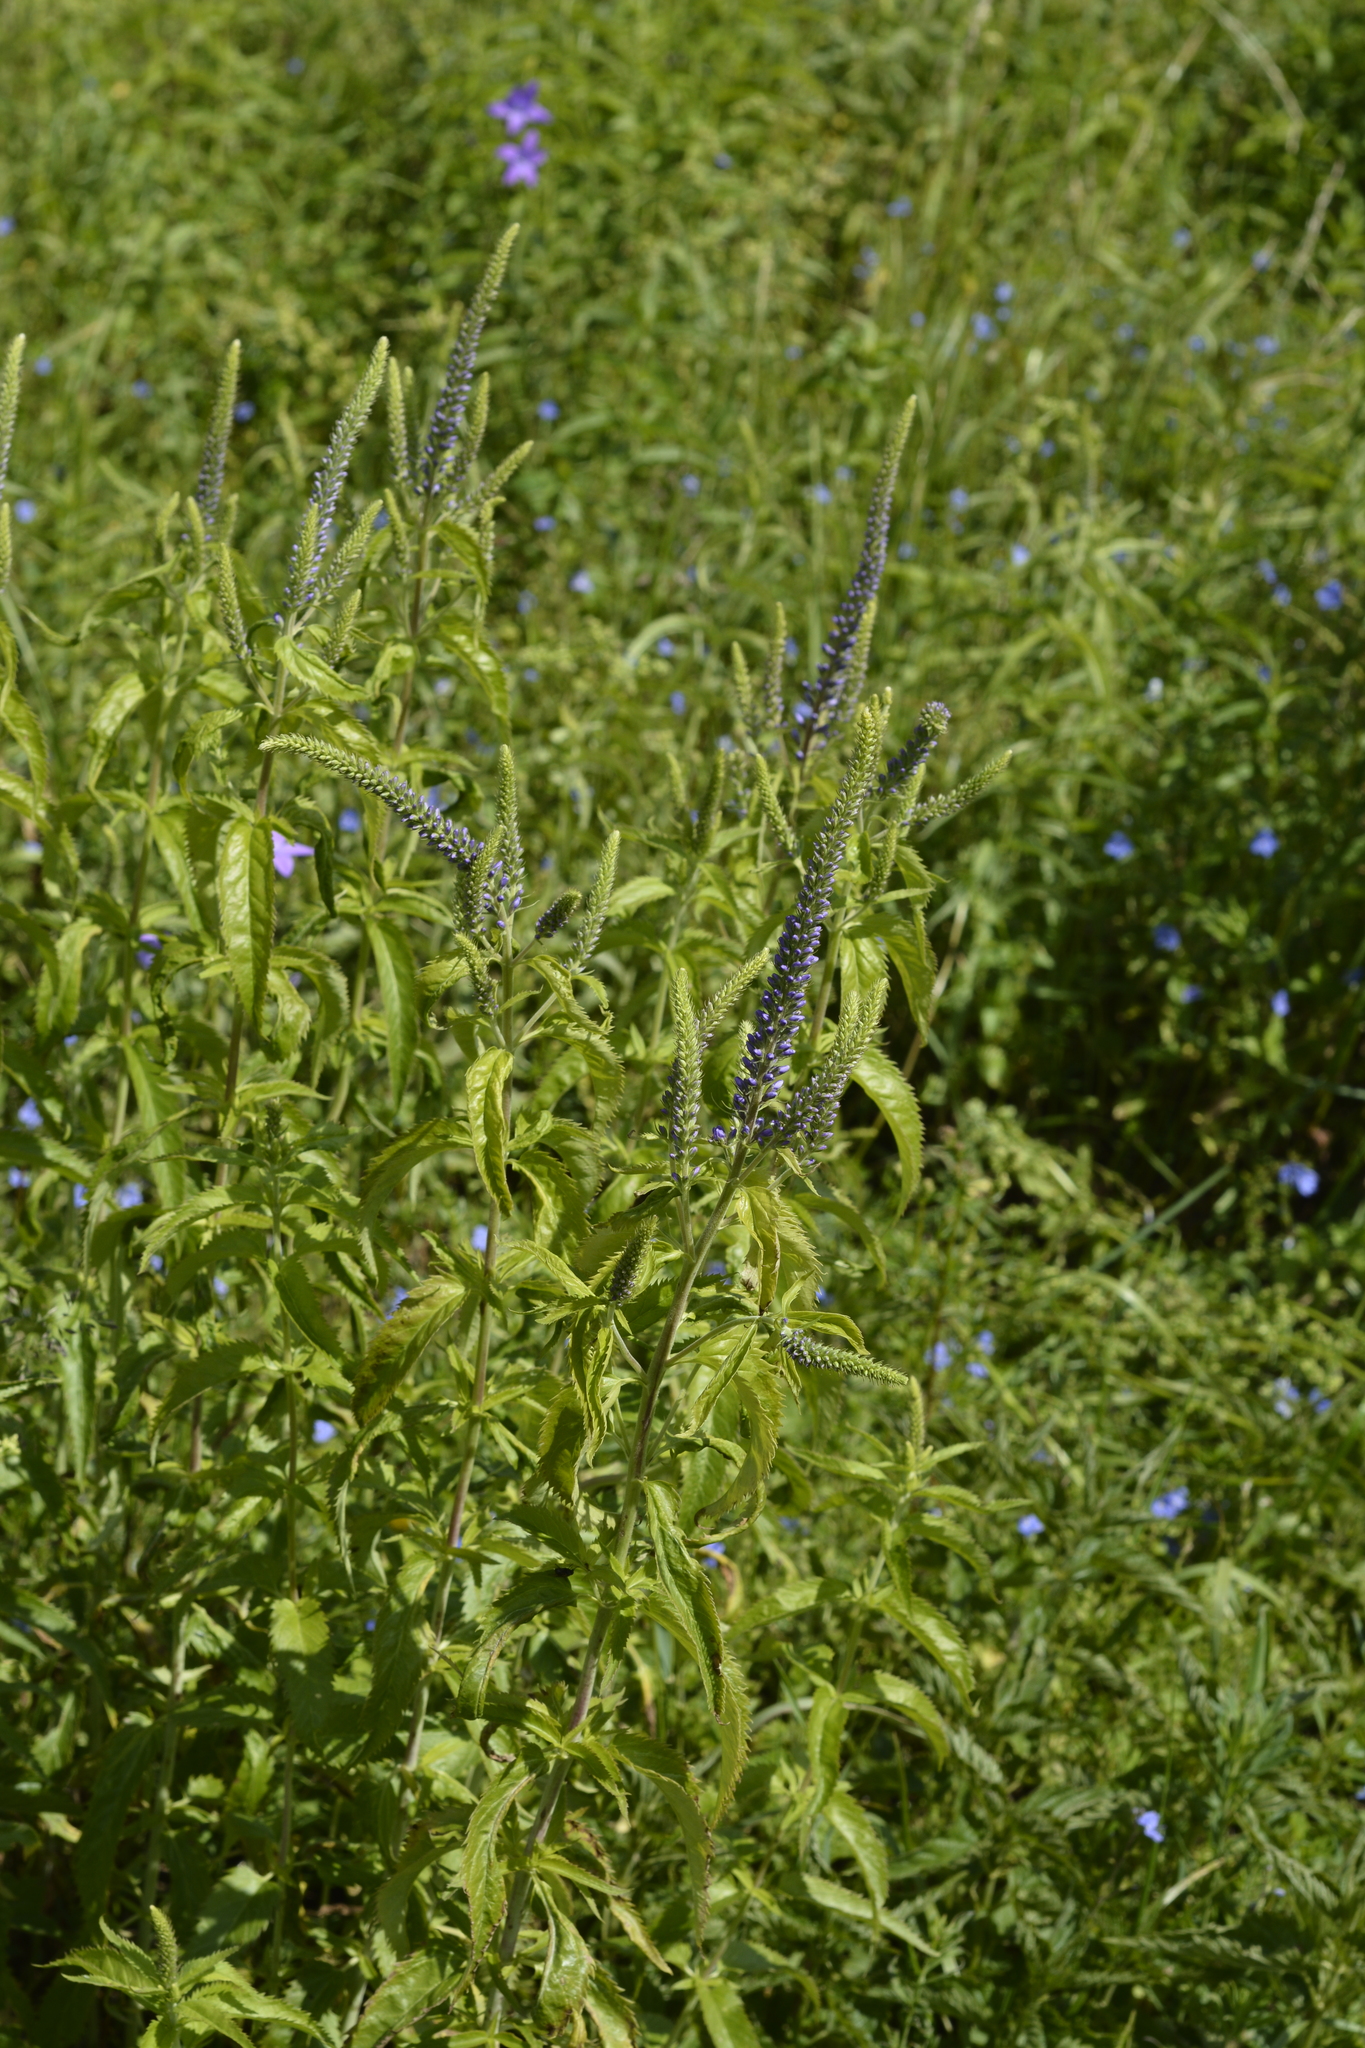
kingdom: Plantae
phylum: Tracheophyta
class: Magnoliopsida
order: Lamiales
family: Plantaginaceae
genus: Veronica
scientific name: Veronica longifolia
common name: Garden speedwell
